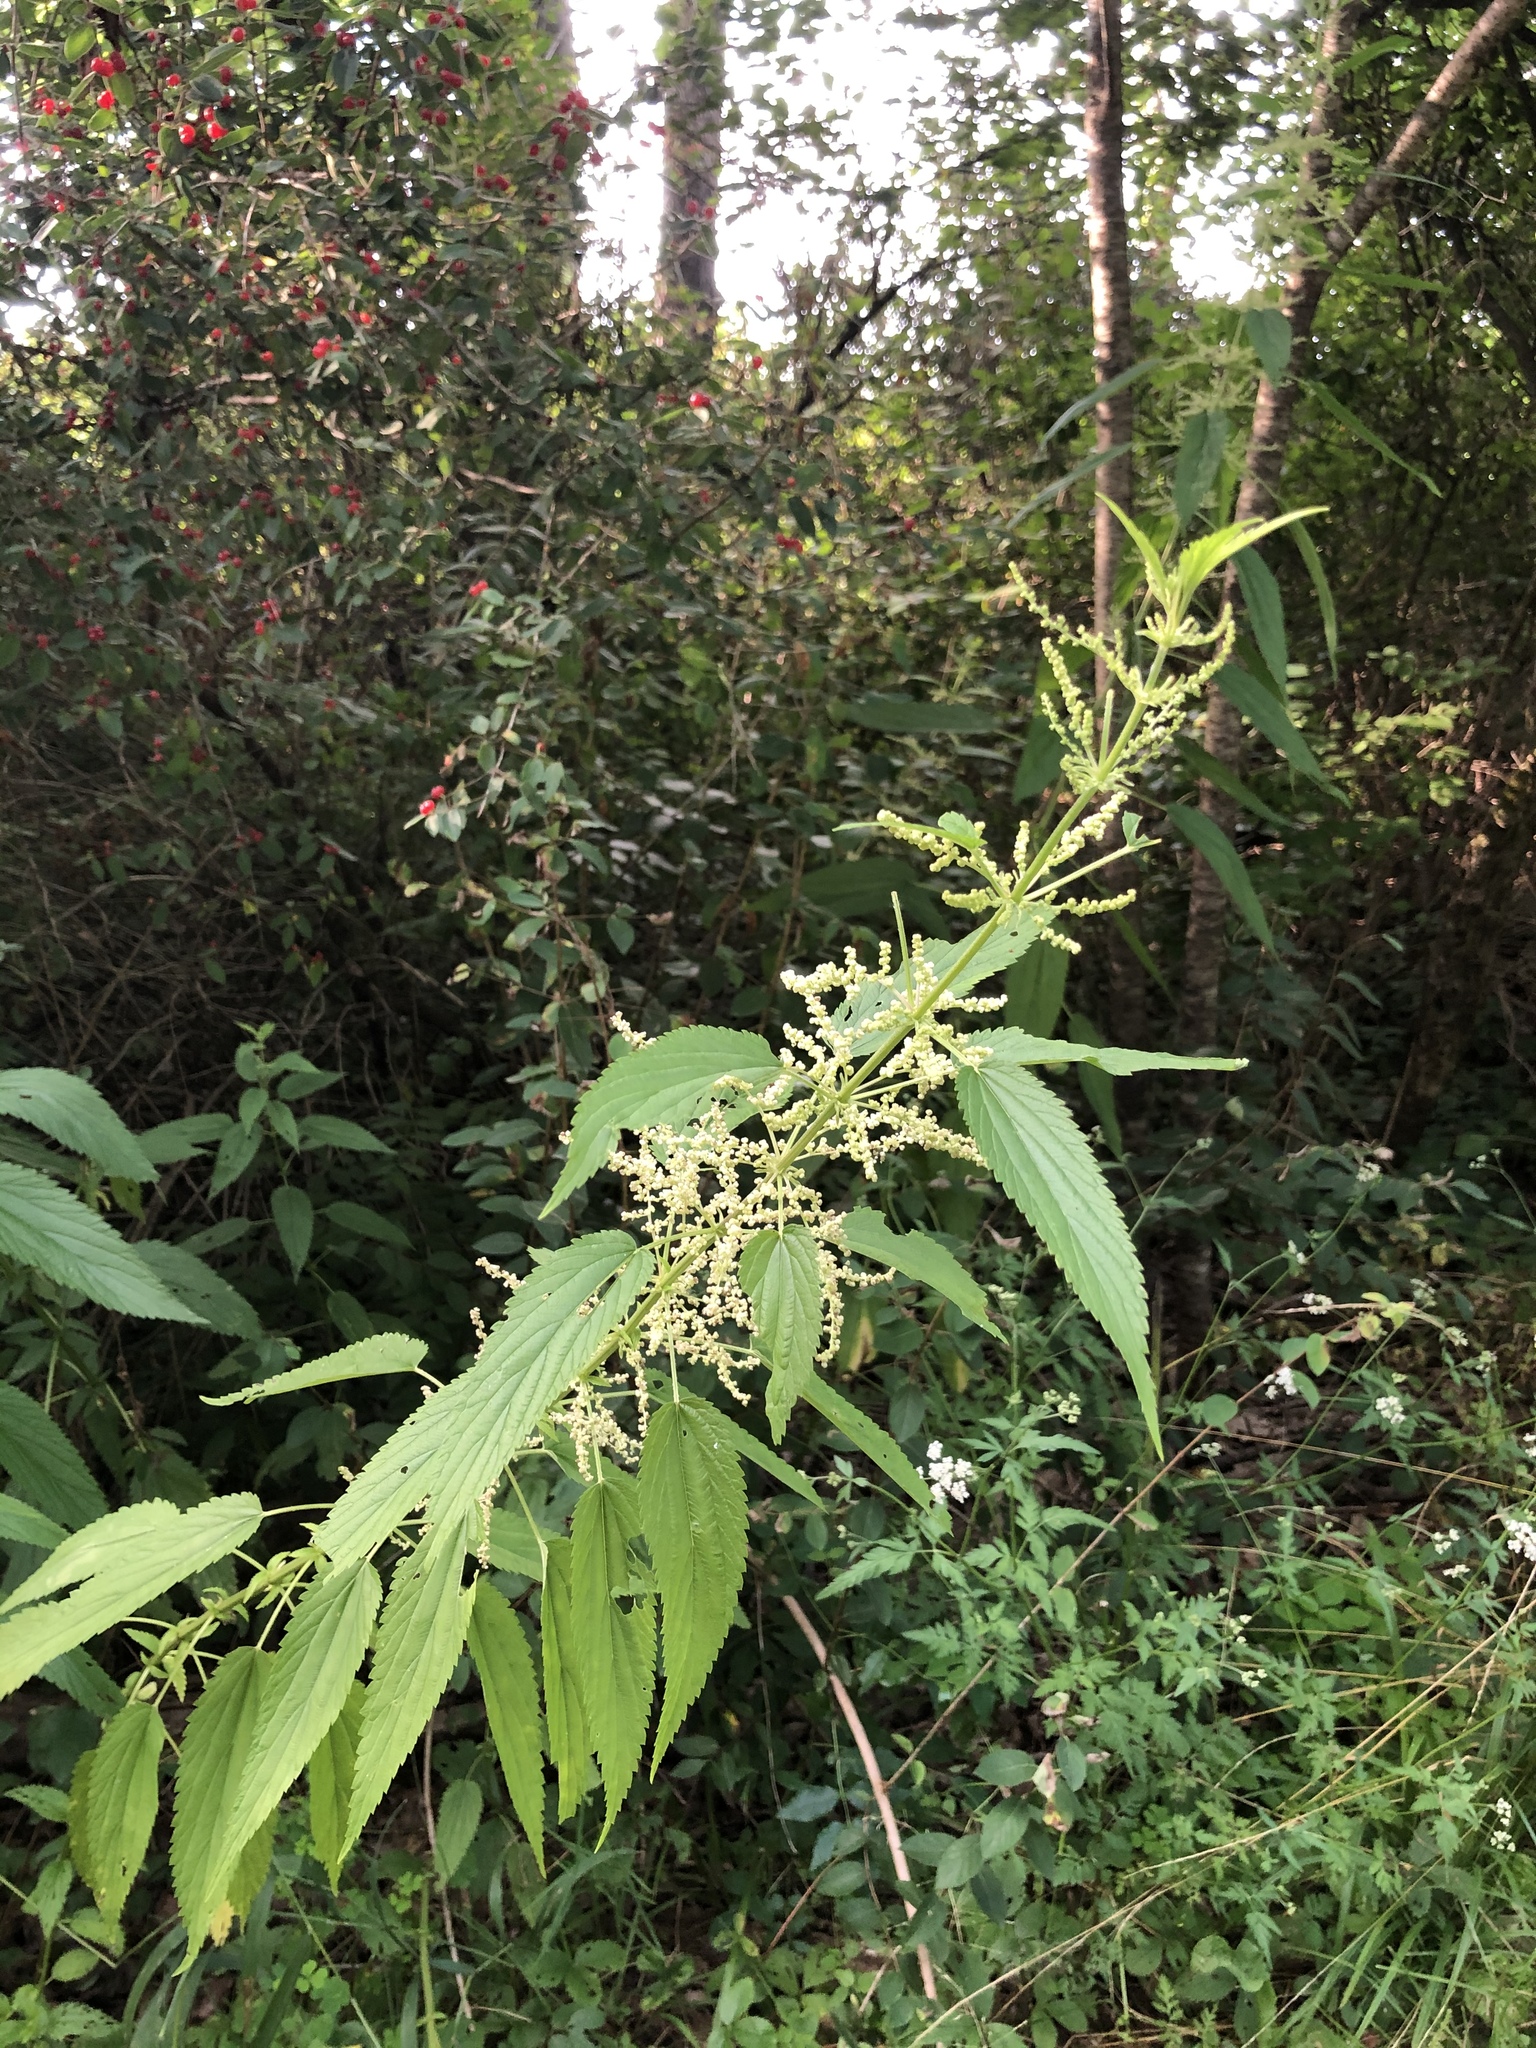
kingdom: Plantae
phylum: Tracheophyta
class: Magnoliopsida
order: Rosales
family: Urticaceae
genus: Urtica
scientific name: Urtica dioica
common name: Common nettle
